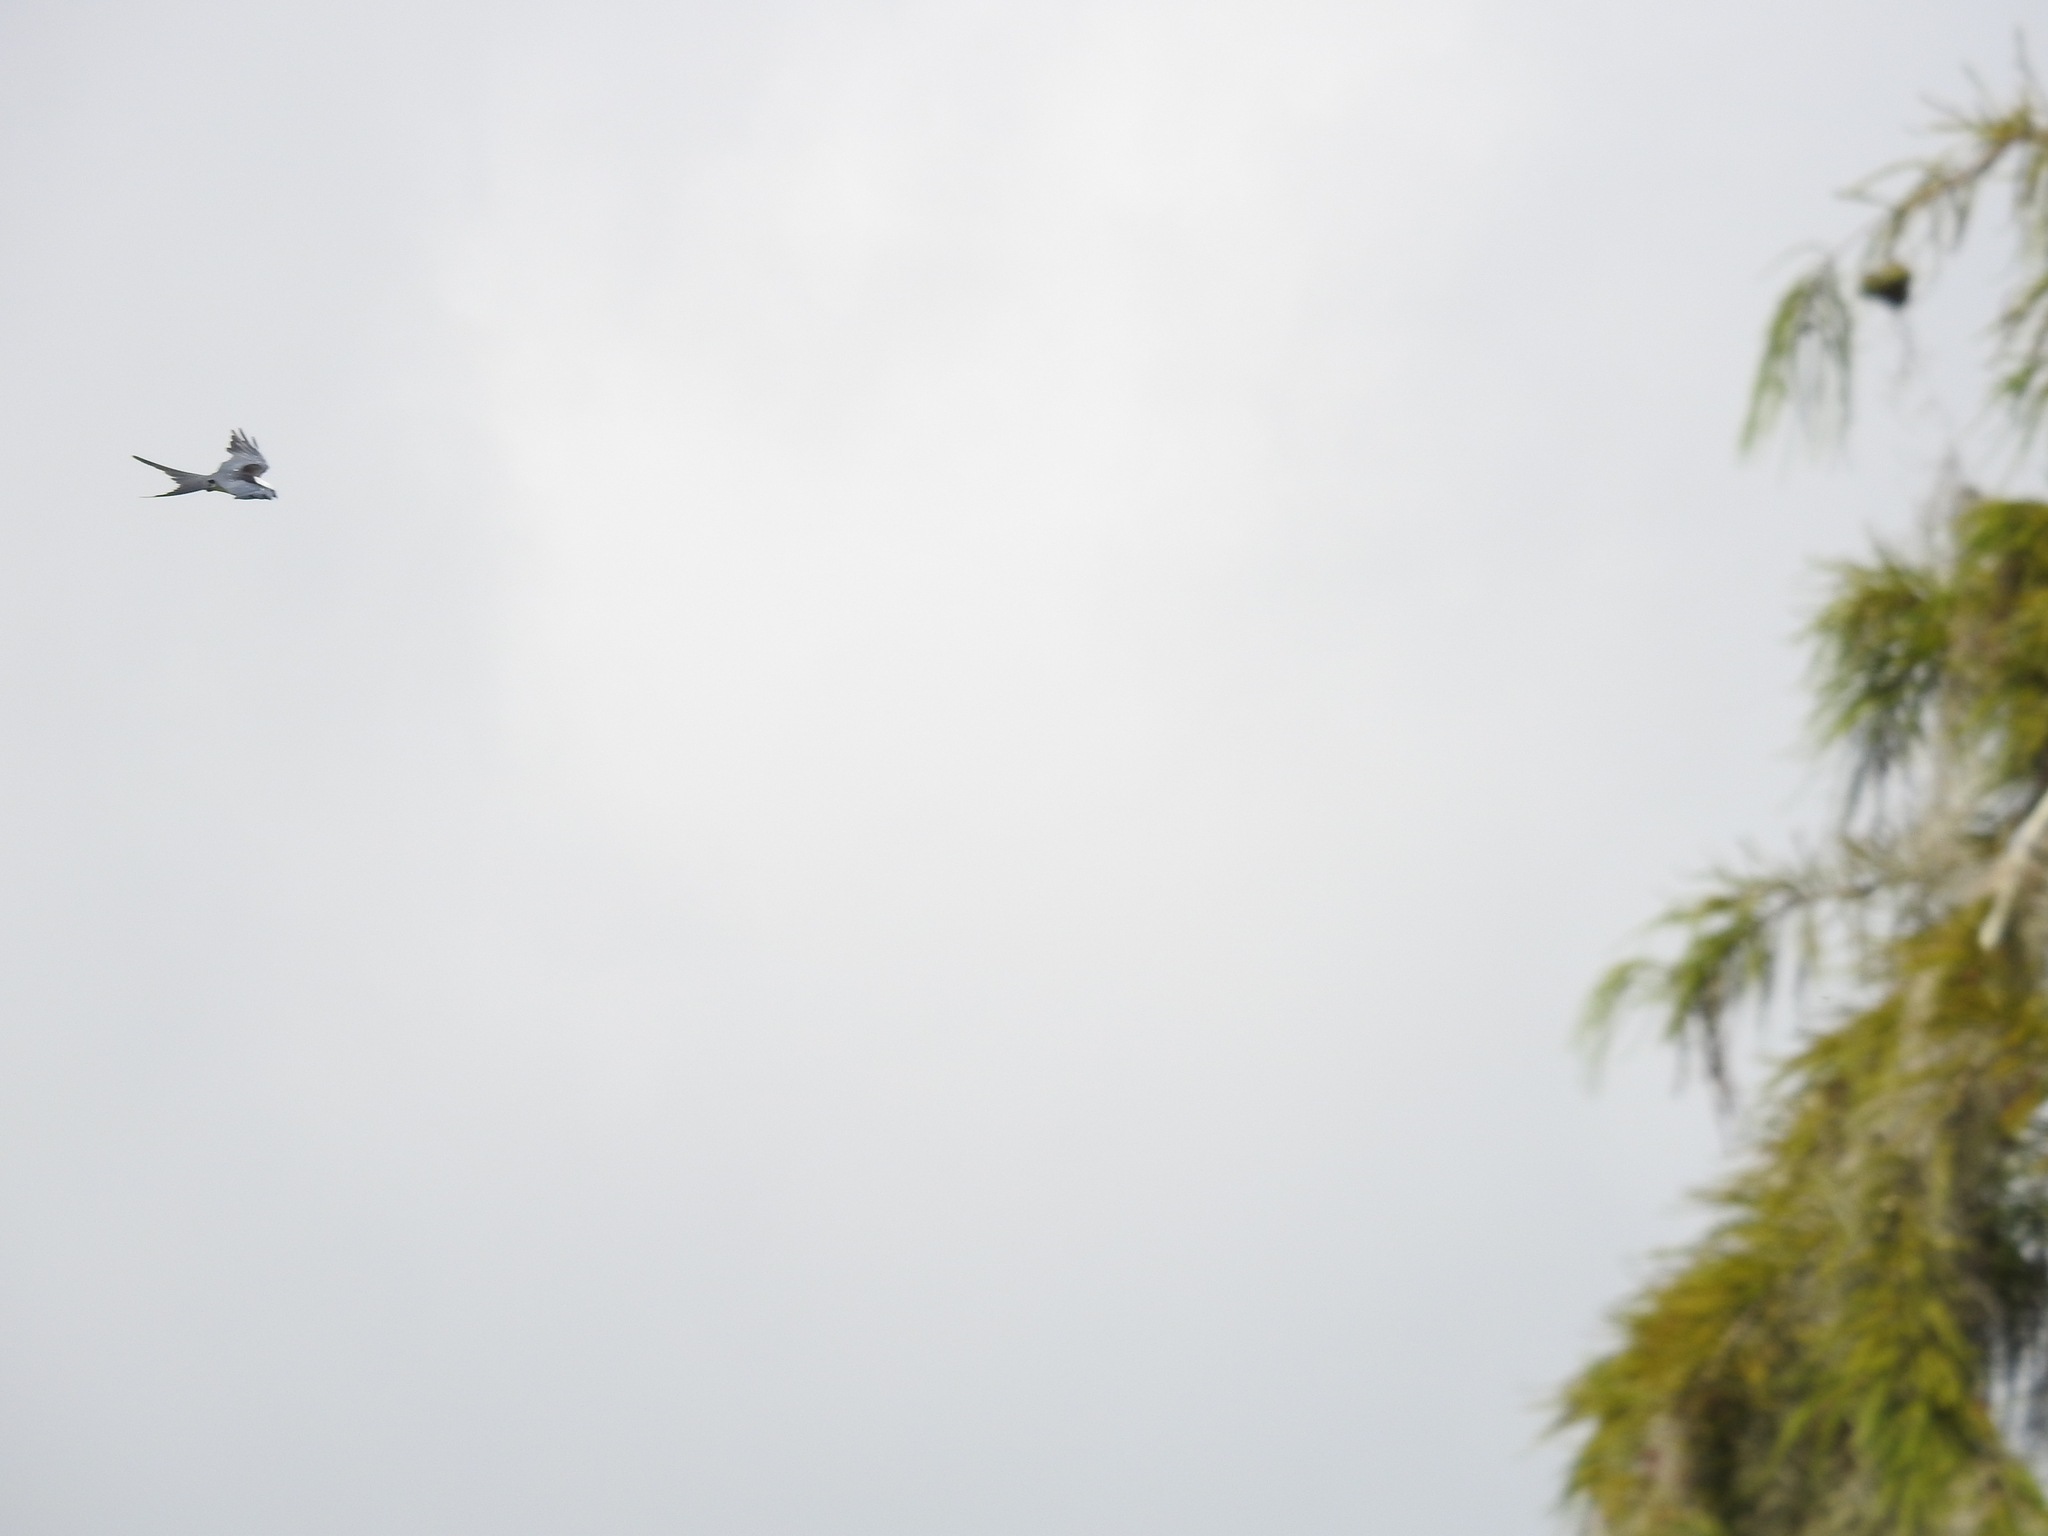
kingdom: Animalia
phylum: Chordata
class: Aves
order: Accipitriformes
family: Accipitridae
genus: Elanoides
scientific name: Elanoides forficatus
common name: Swallow-tailed kite
